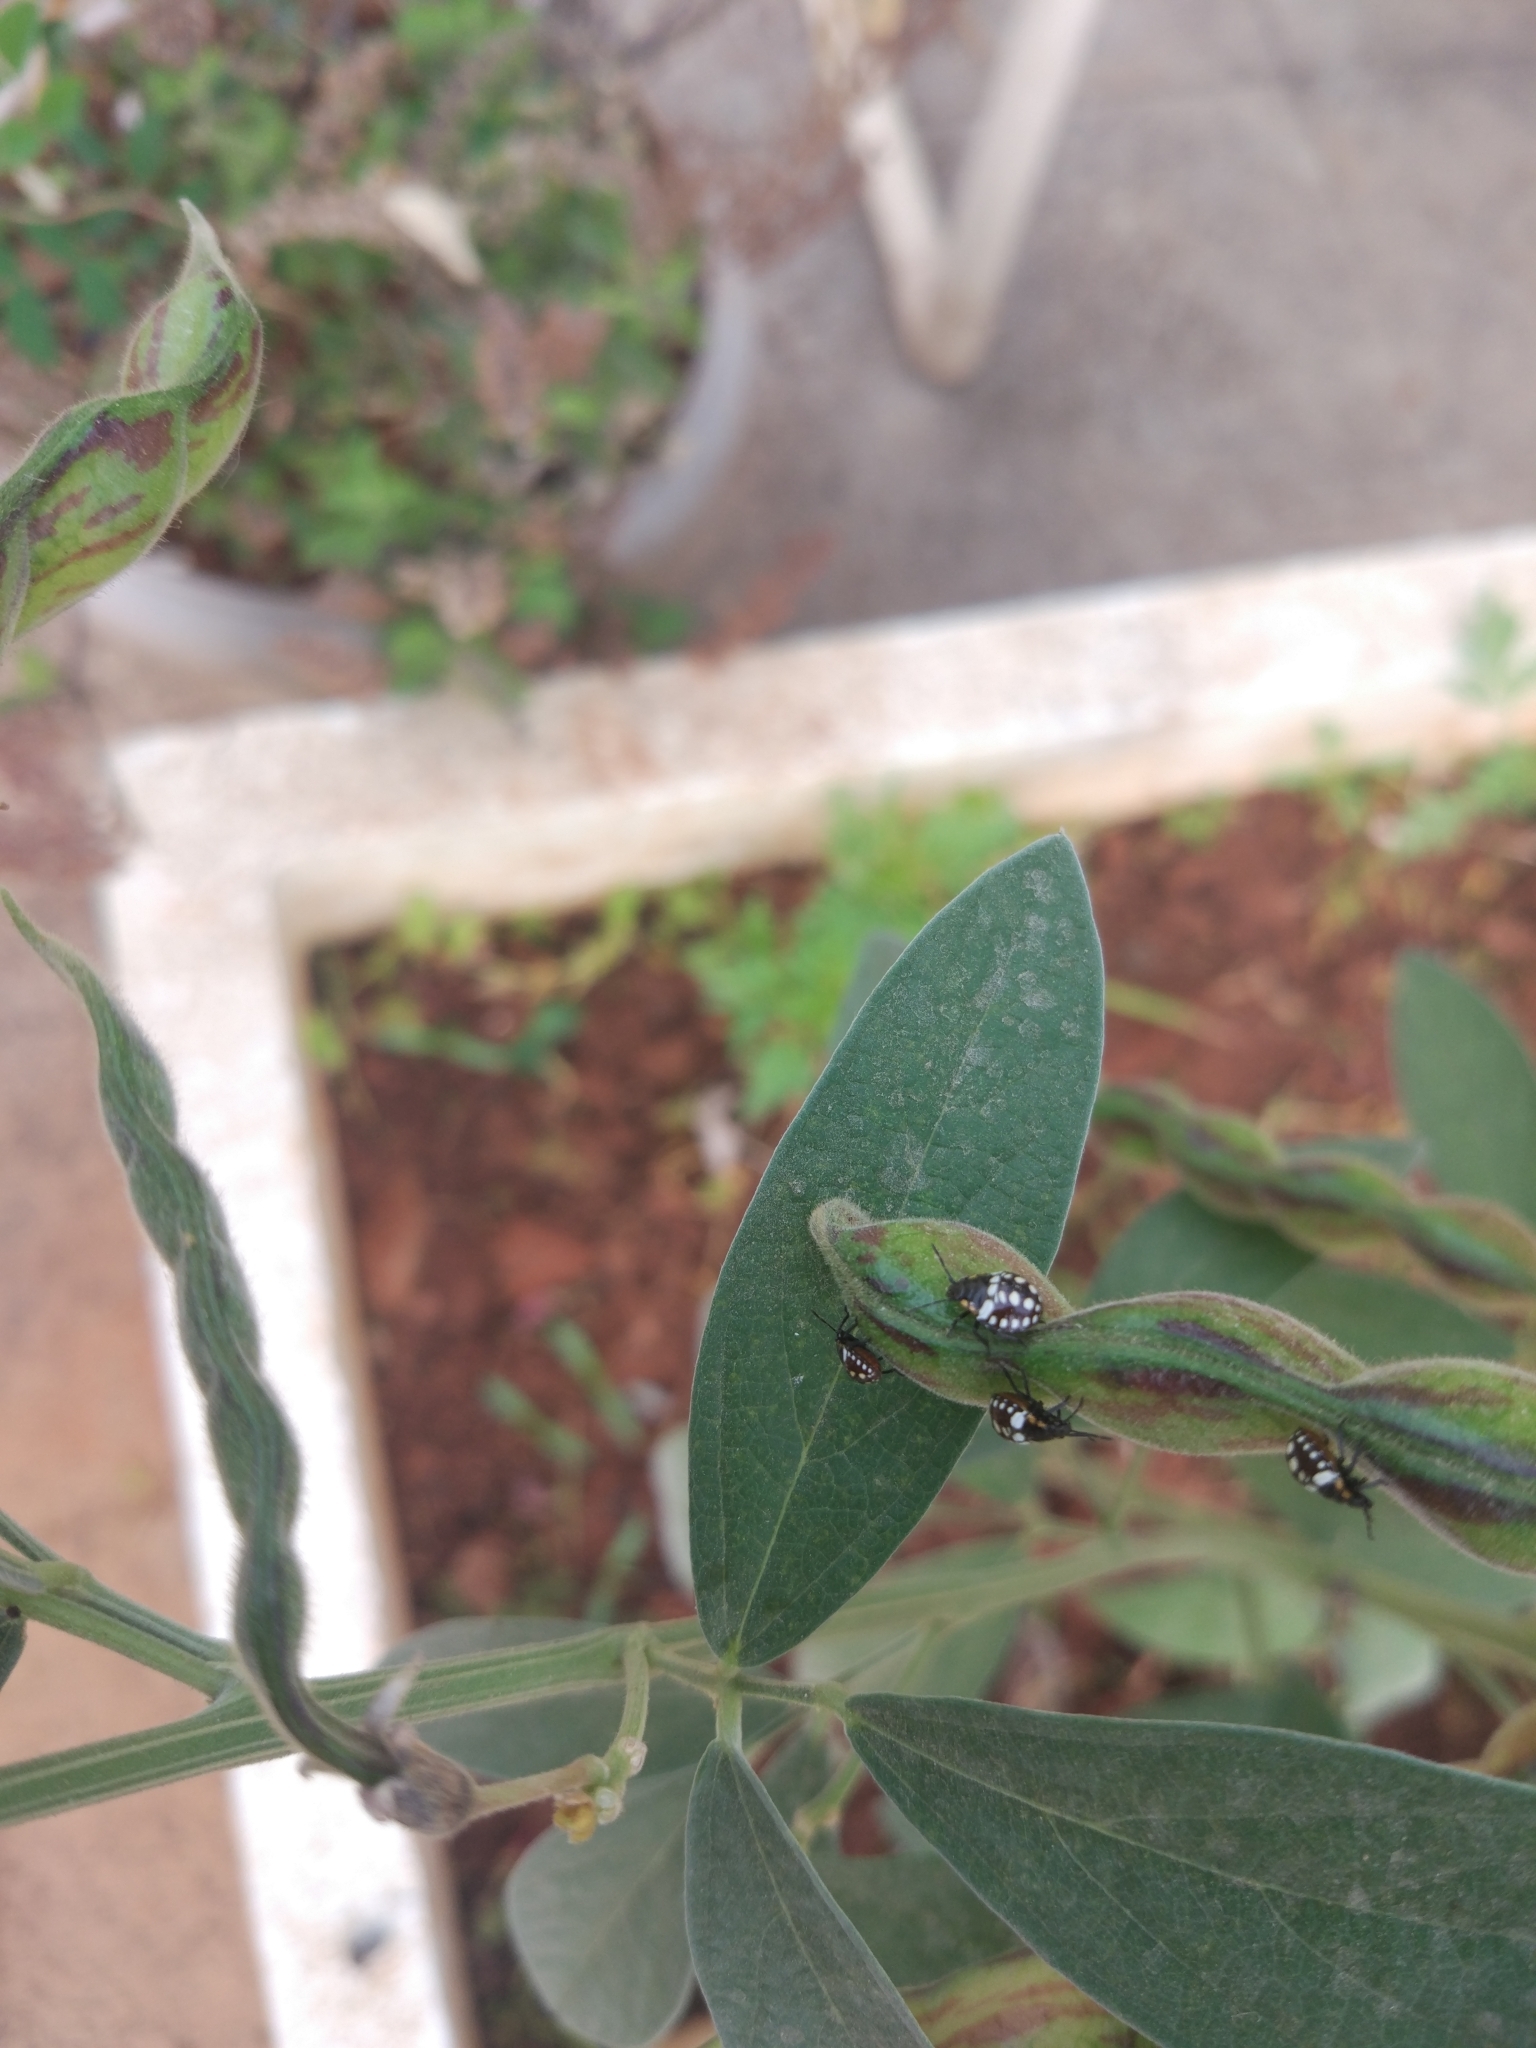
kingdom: Animalia
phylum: Arthropoda
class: Insecta
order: Hemiptera
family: Pentatomidae
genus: Nezara
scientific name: Nezara viridula
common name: Southern green stink bug
